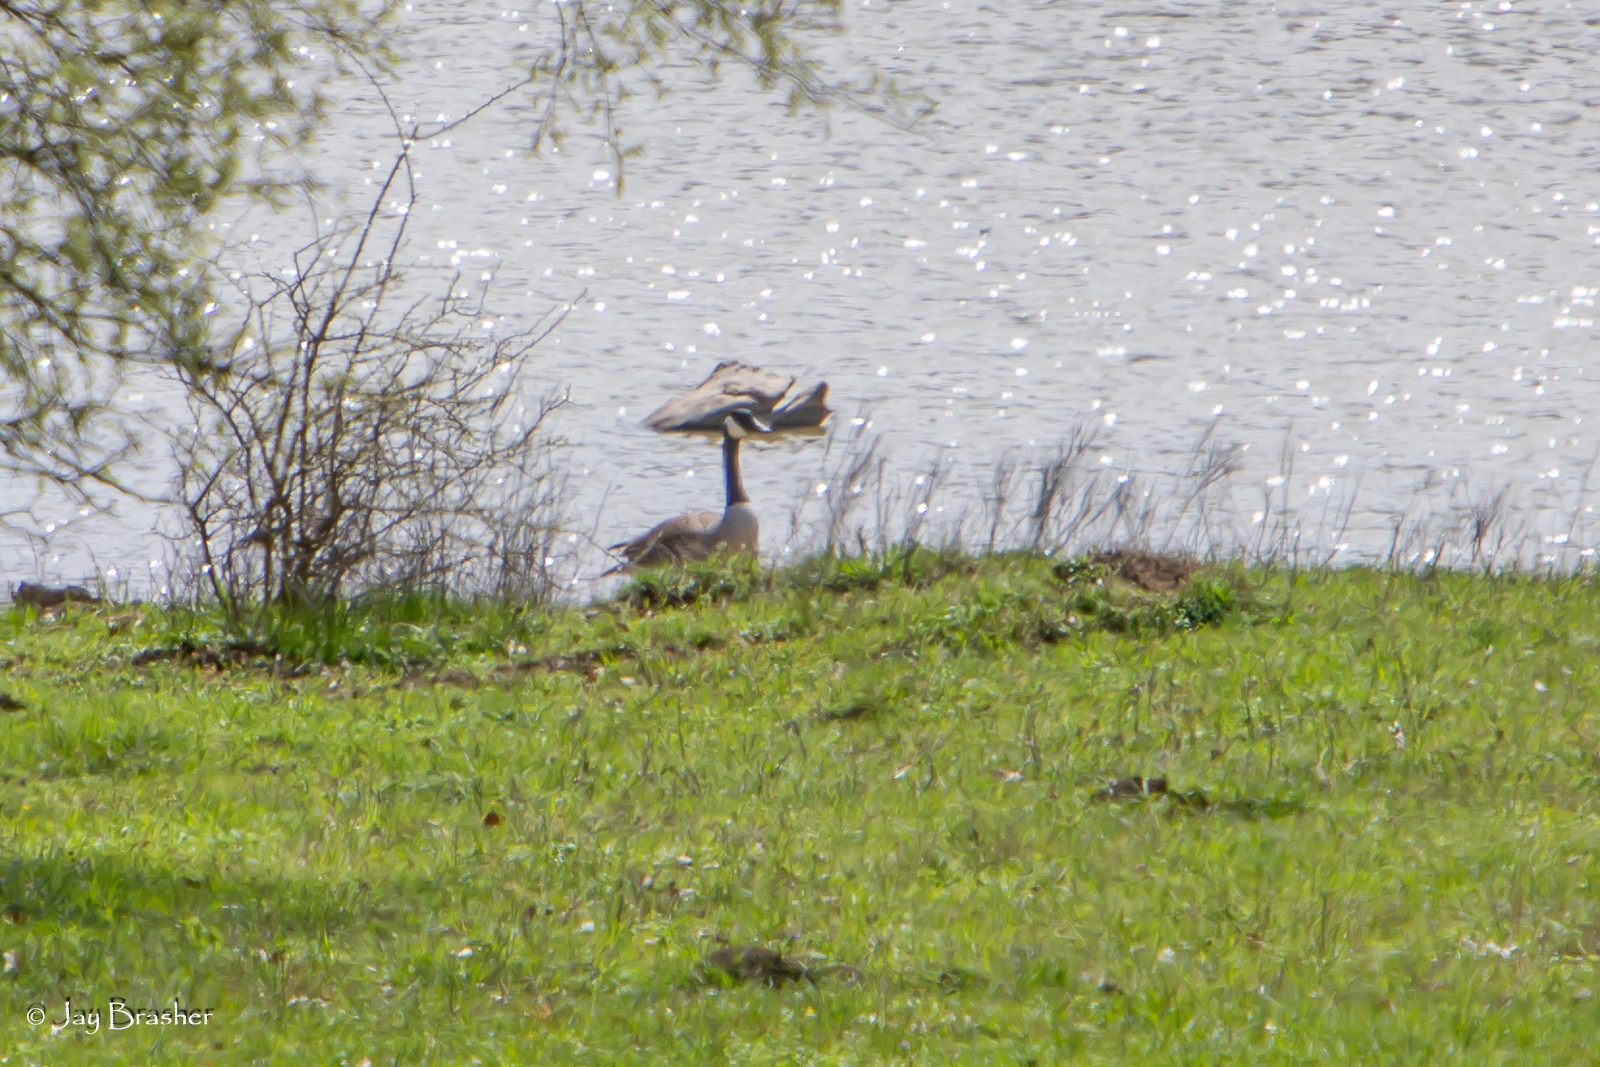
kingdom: Animalia
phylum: Chordata
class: Aves
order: Anseriformes
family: Anatidae
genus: Branta
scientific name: Branta canadensis
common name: Canada goose
